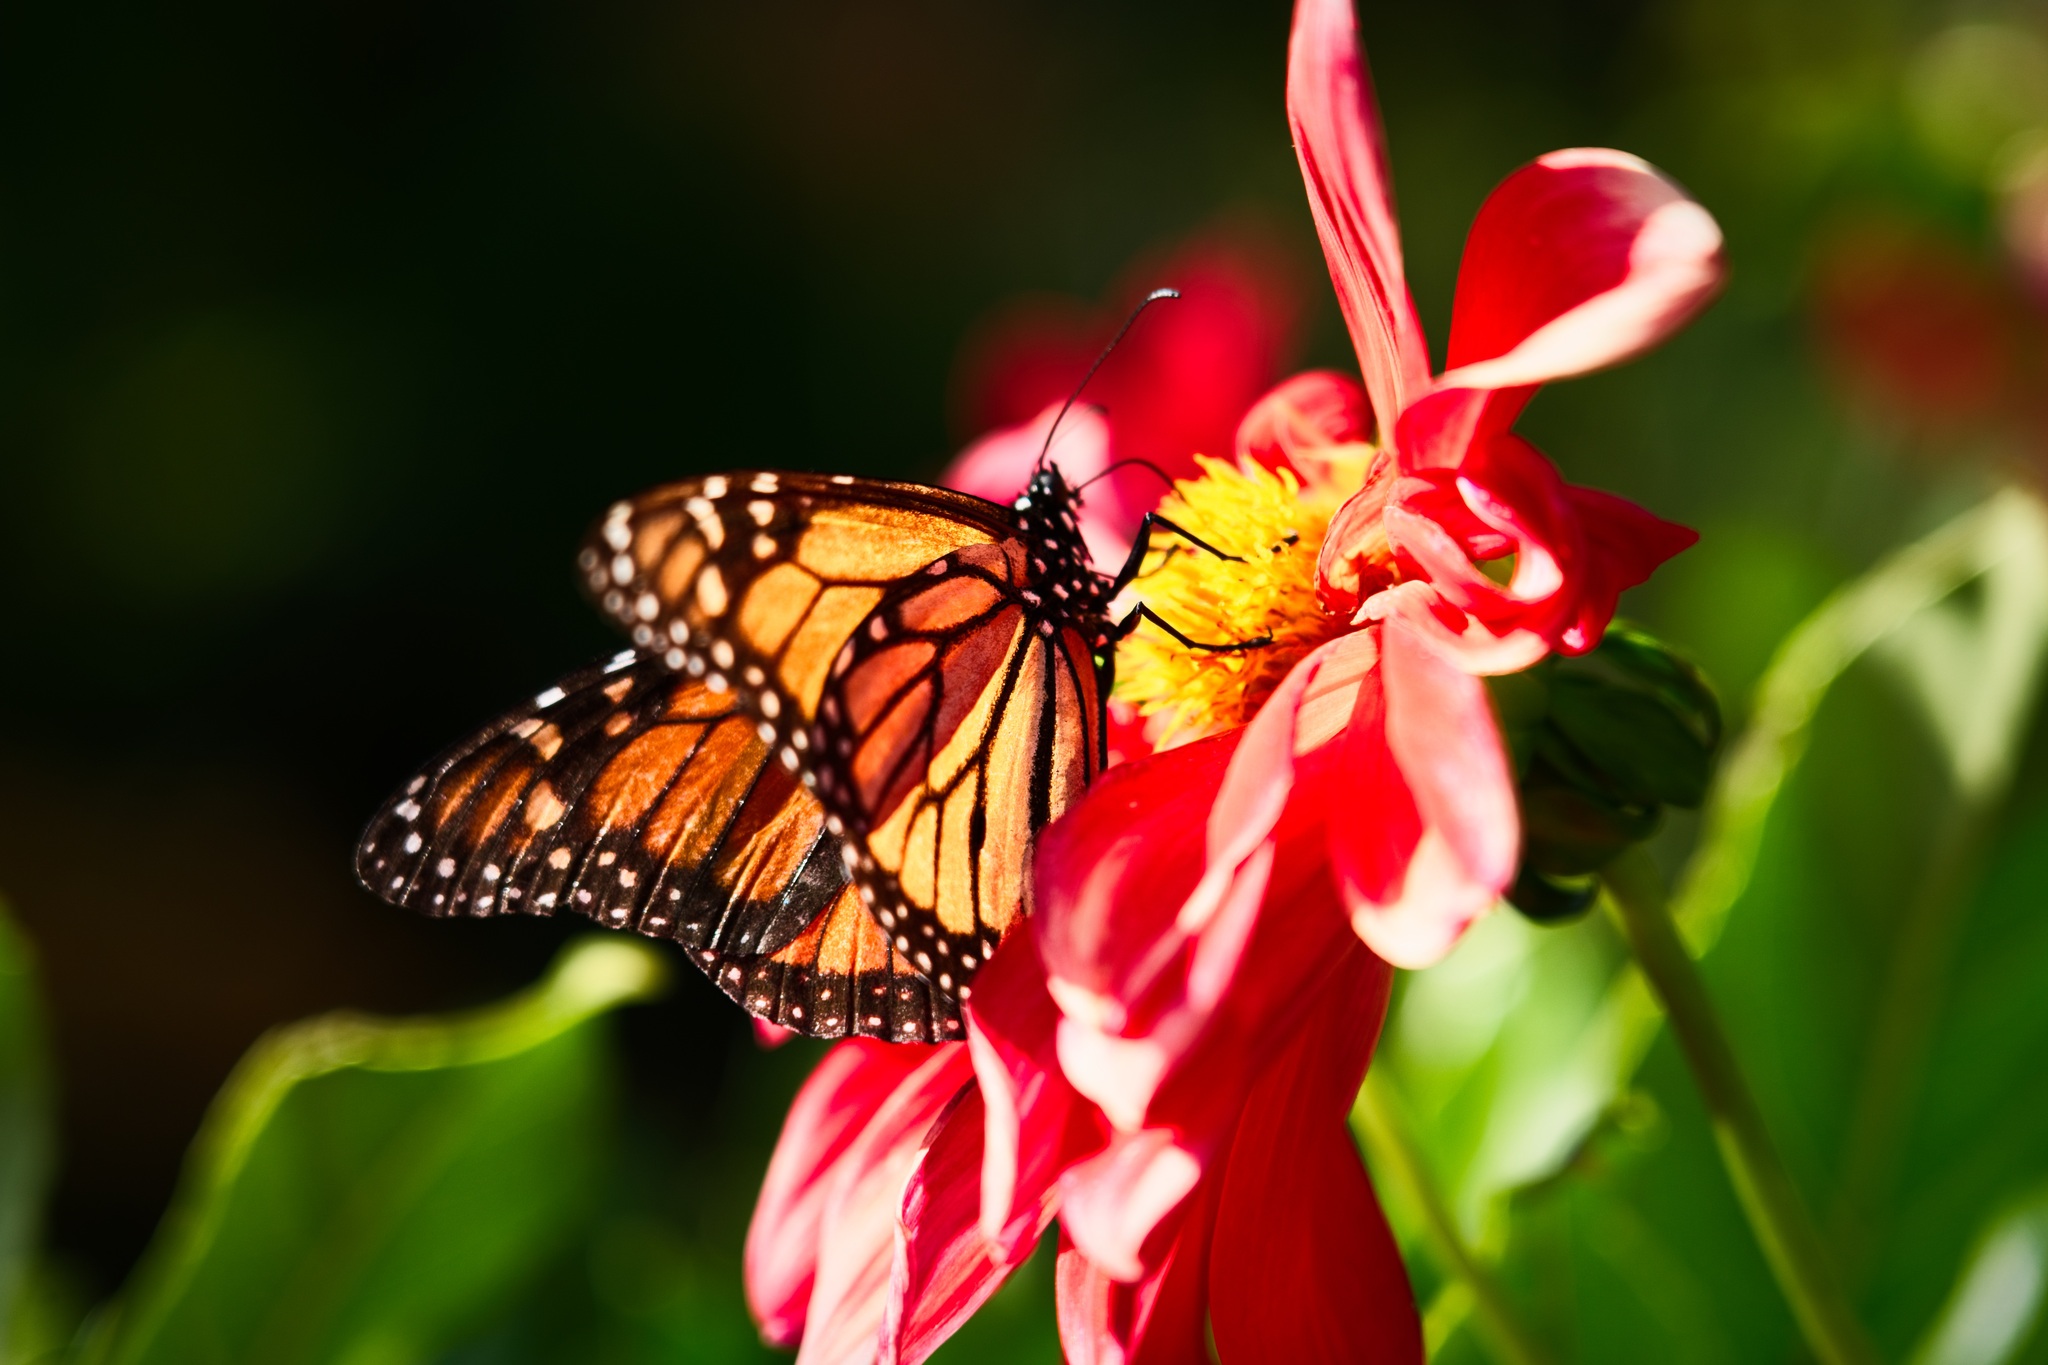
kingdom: Animalia
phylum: Arthropoda
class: Insecta
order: Lepidoptera
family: Nymphalidae
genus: Danaus
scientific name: Danaus plexippus
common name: Monarch
